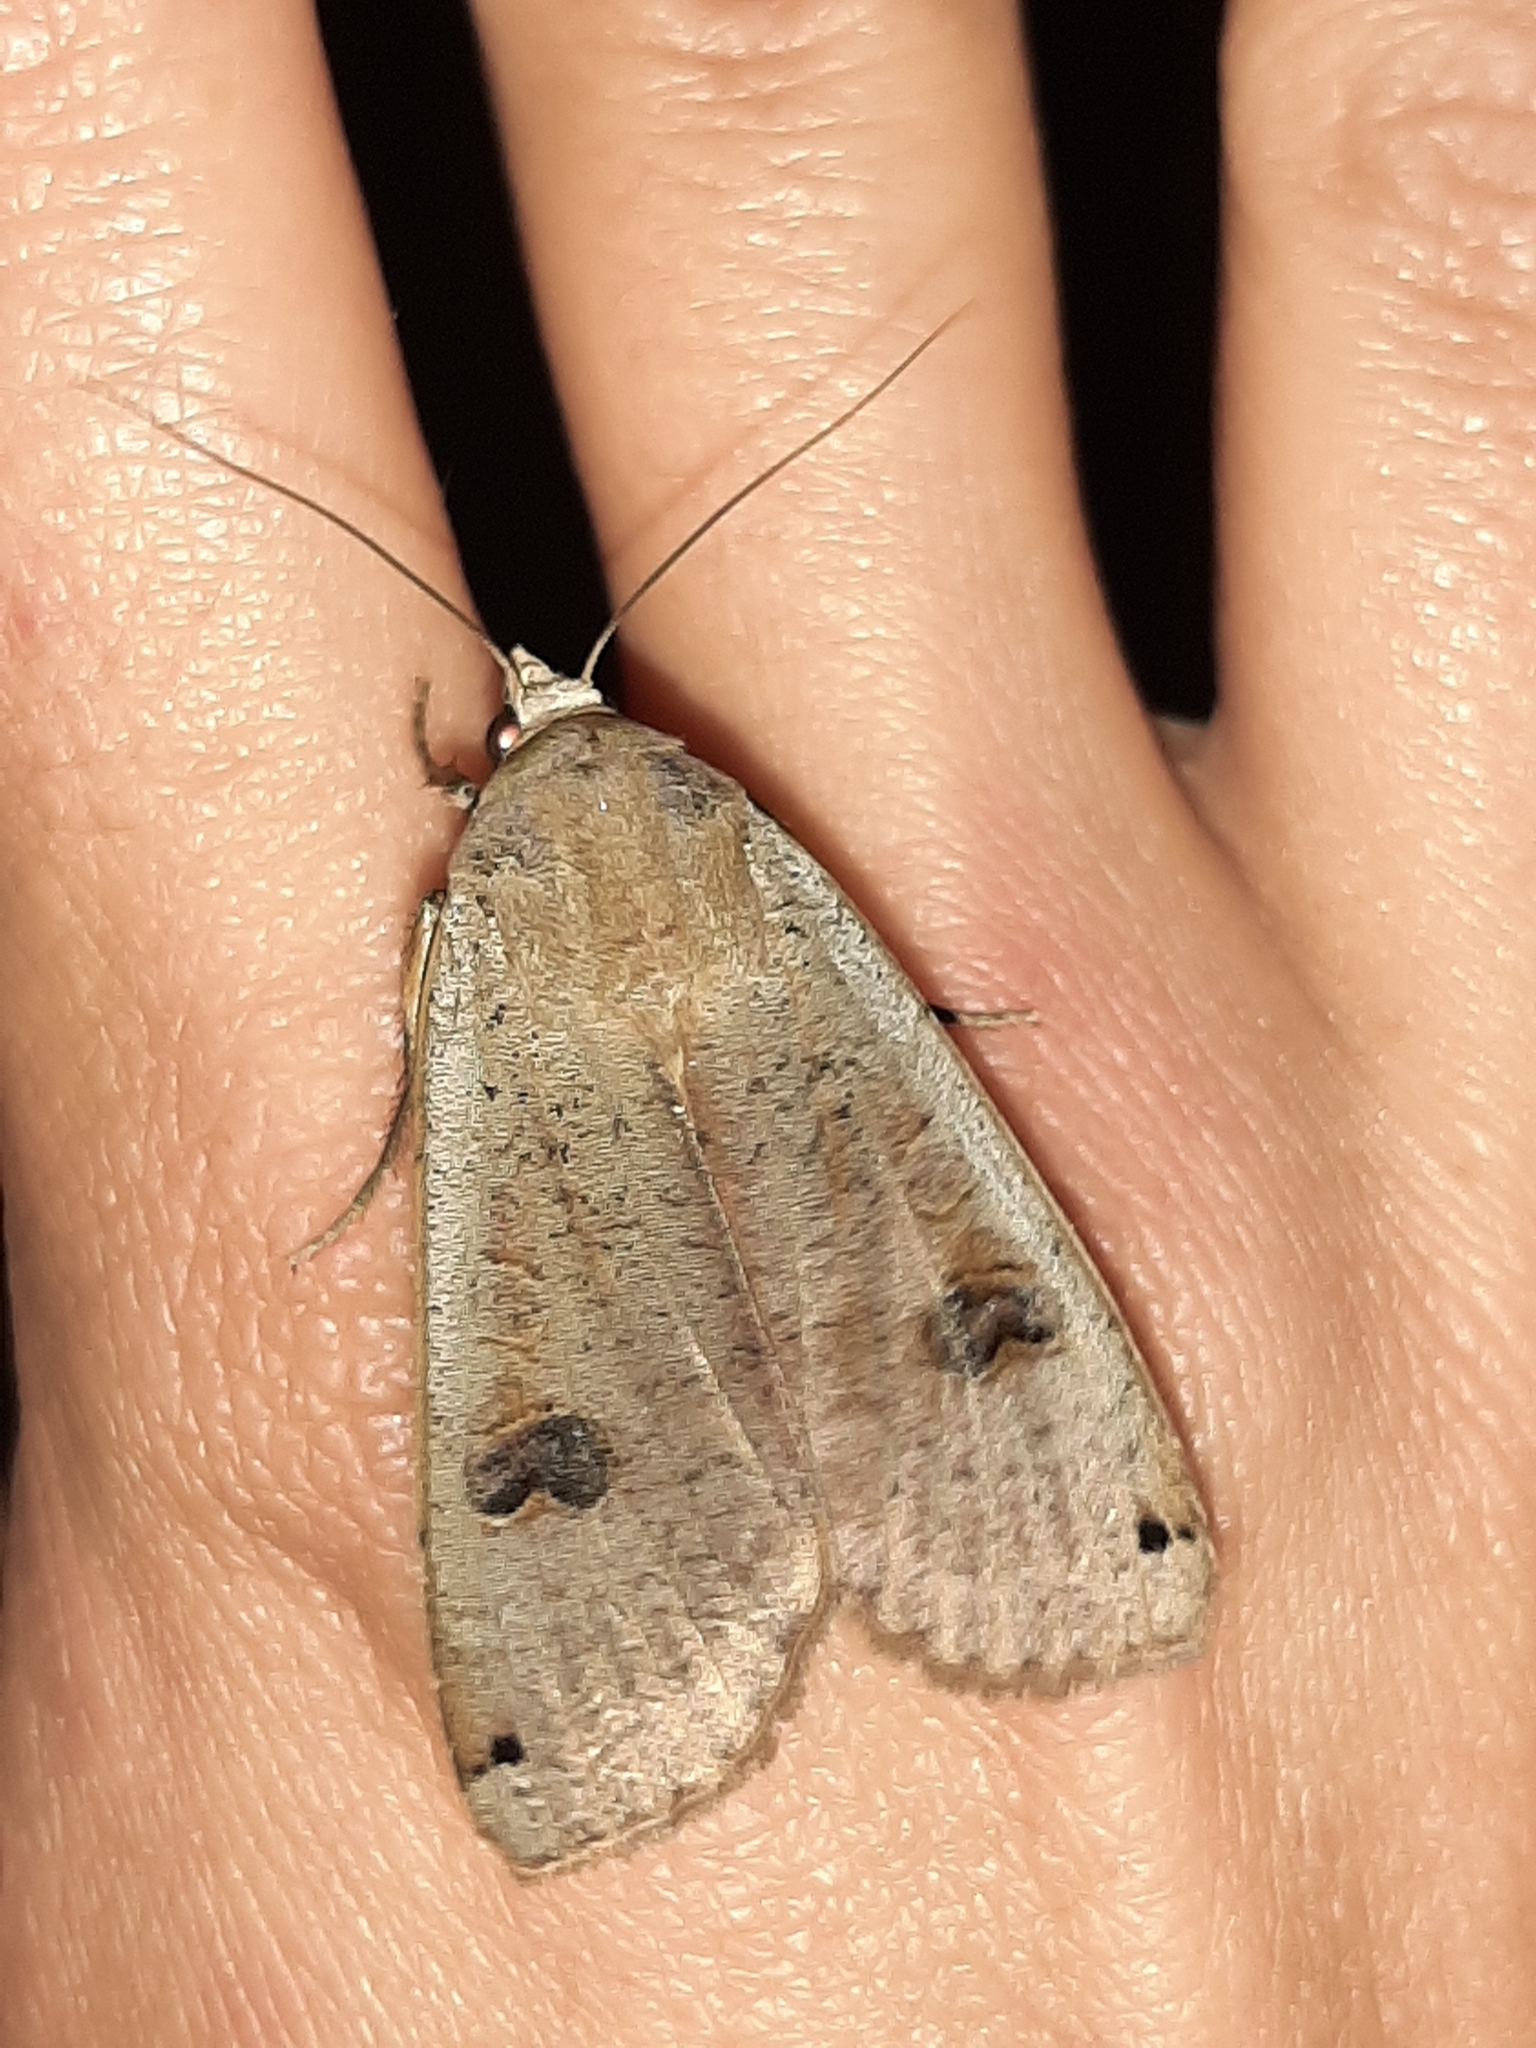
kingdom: Animalia
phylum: Arthropoda
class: Insecta
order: Lepidoptera
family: Noctuidae
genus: Noctua
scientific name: Noctua pronuba
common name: Large yellow underwing
